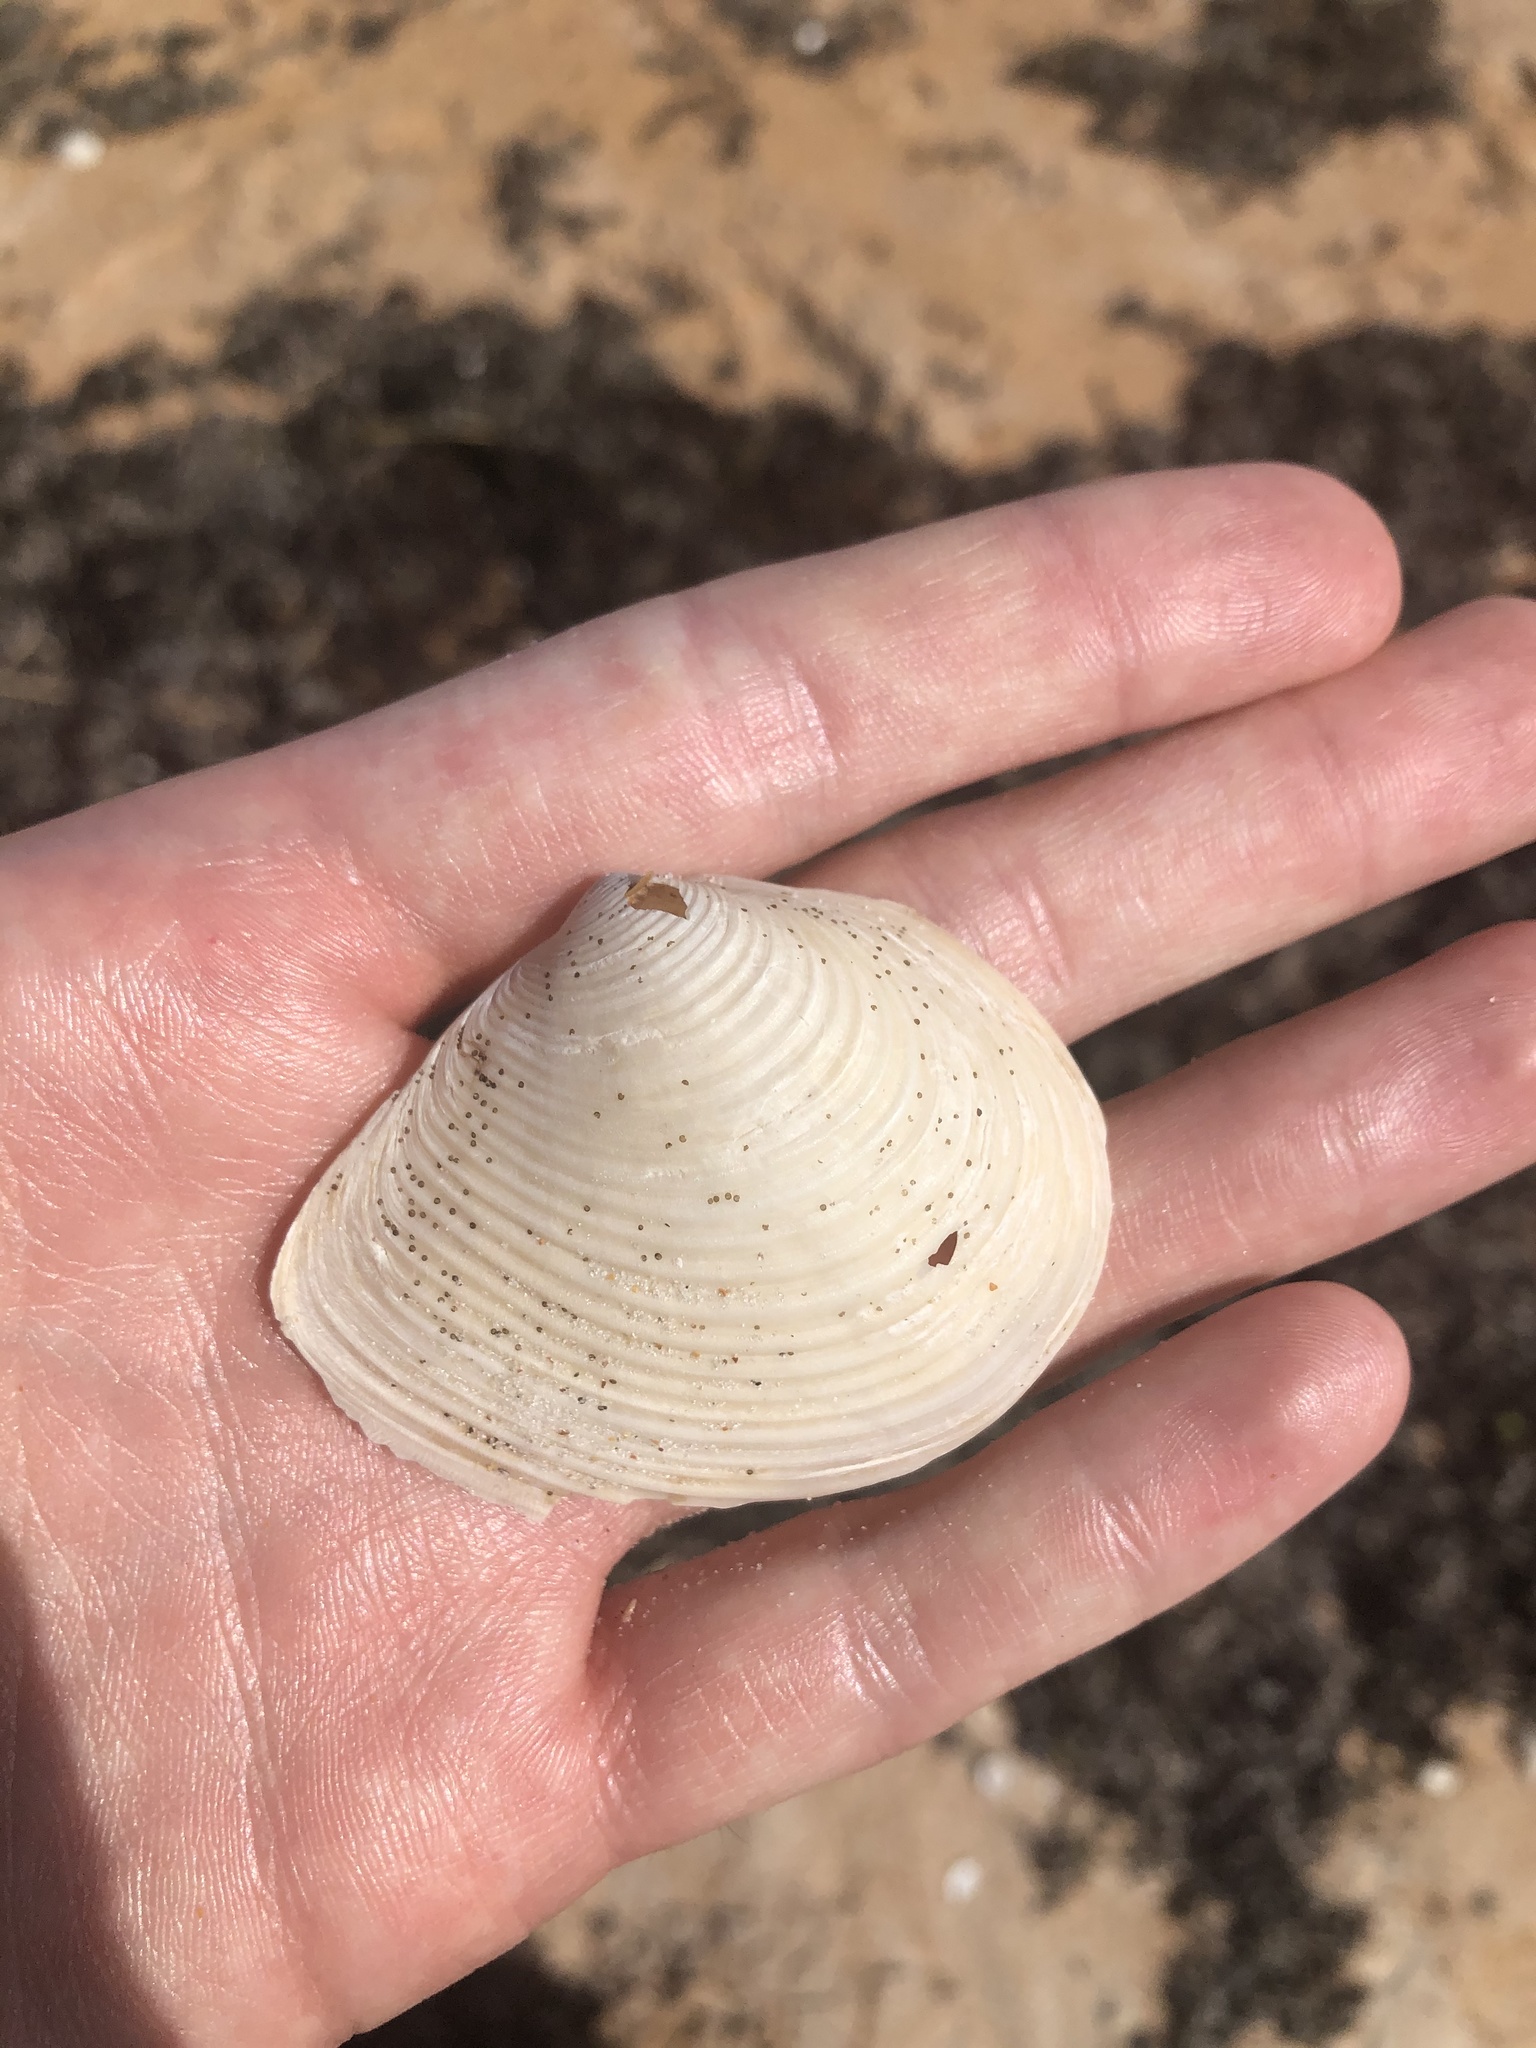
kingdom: Animalia
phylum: Mollusca
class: Bivalvia
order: Venerida
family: Anatinellidae
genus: Raeta
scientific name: Raeta plicatella
